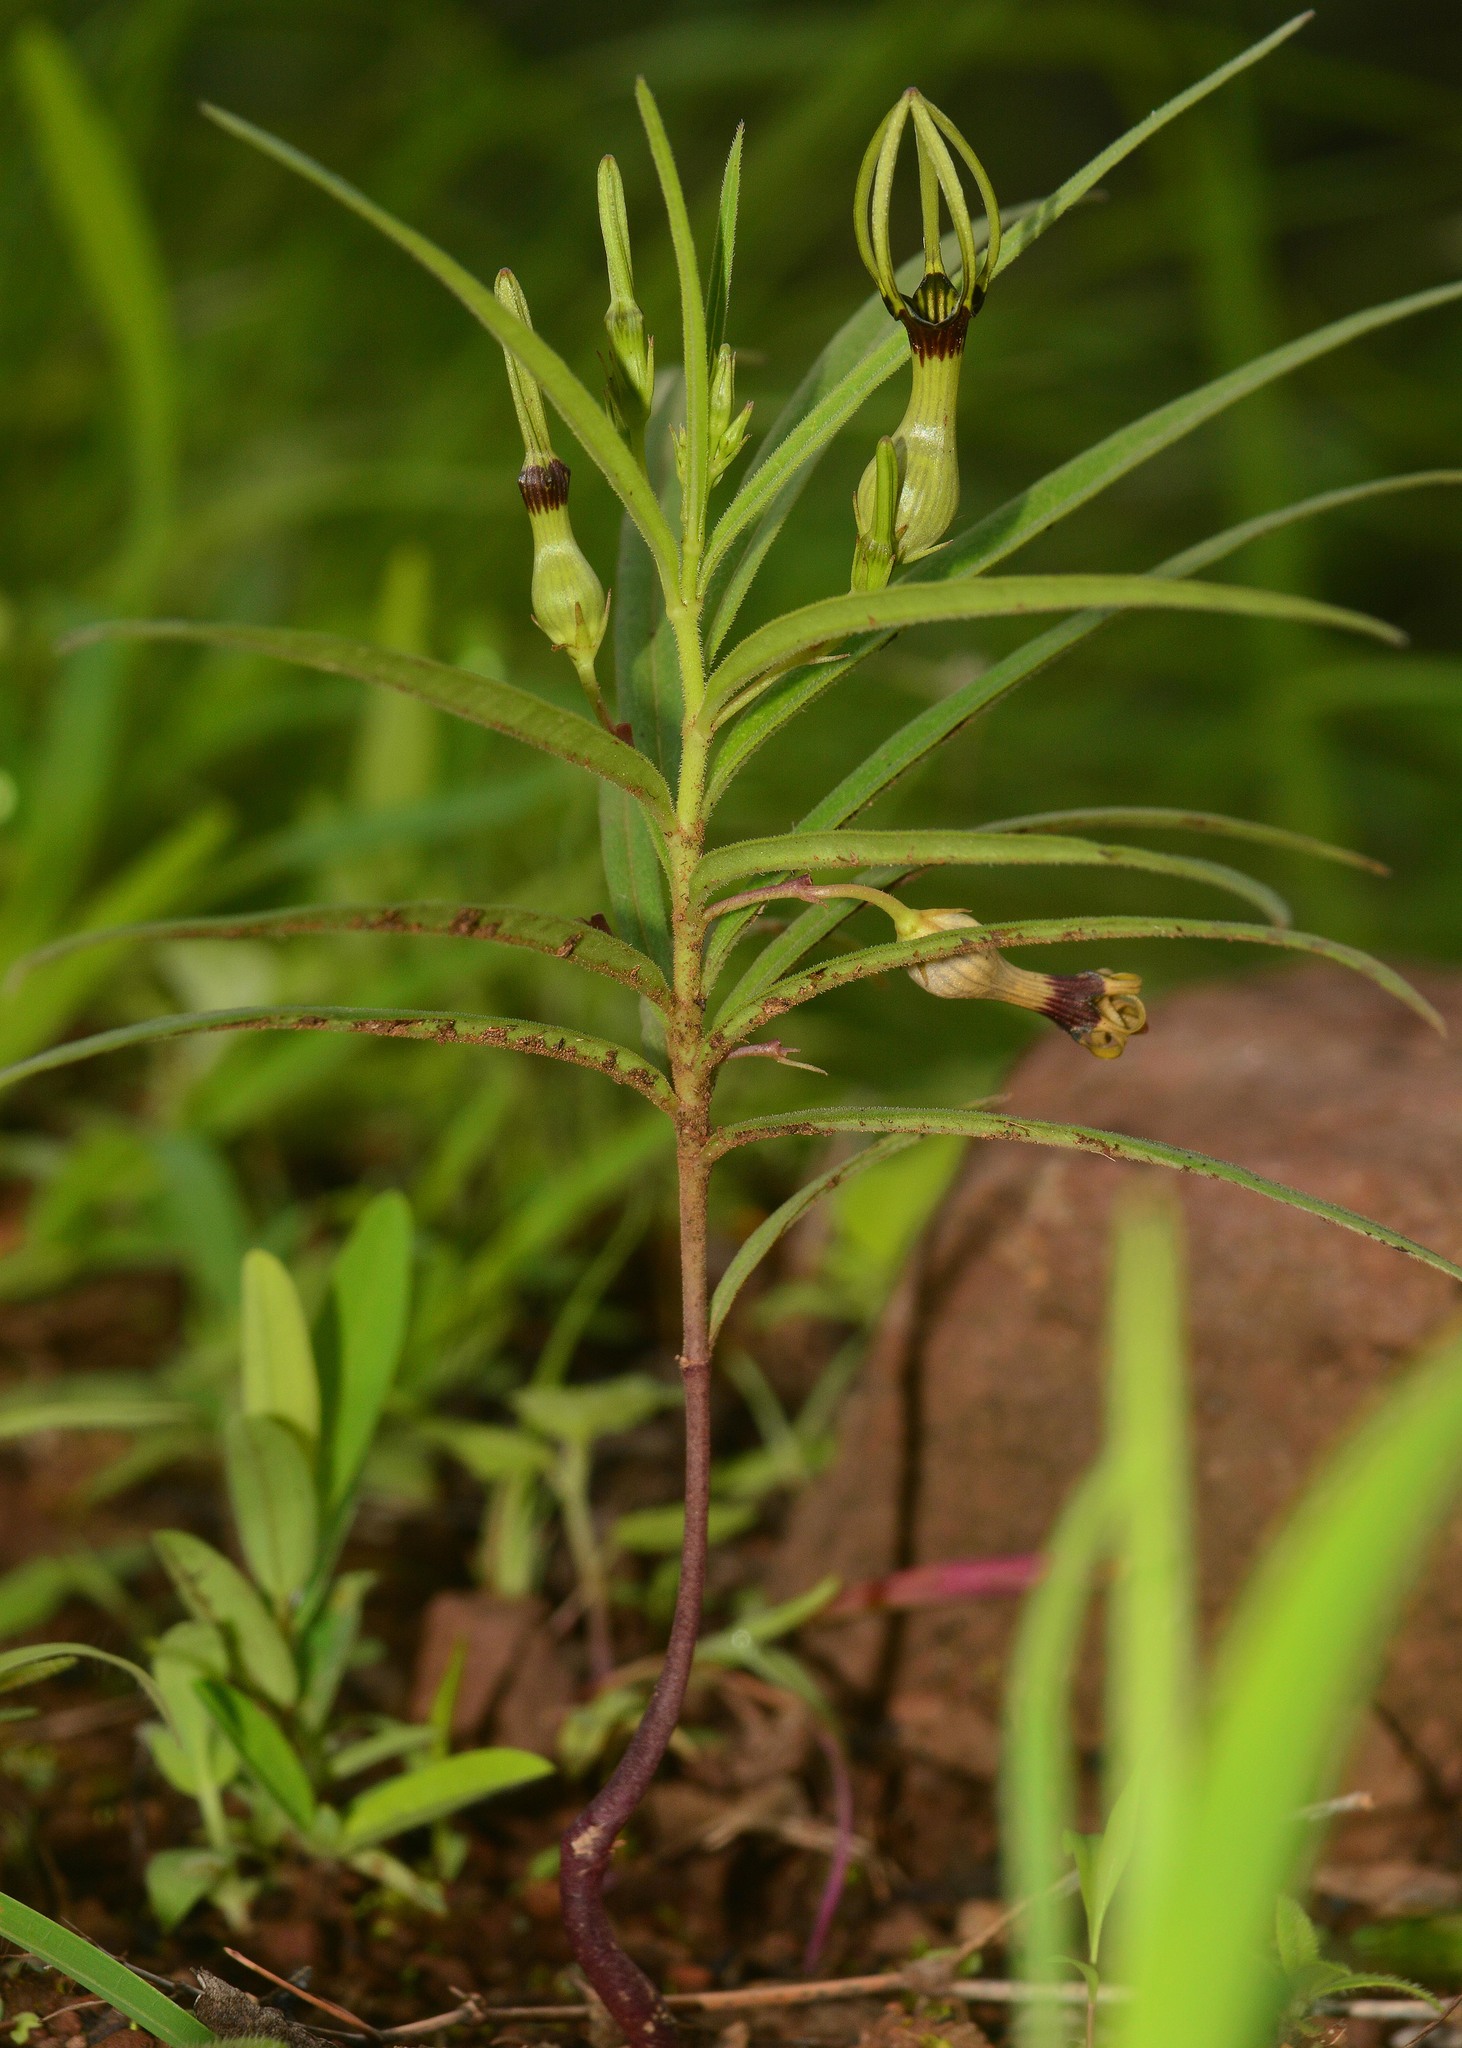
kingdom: Plantae
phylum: Tracheophyta
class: Magnoliopsida
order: Gentianales
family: Apocynaceae
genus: Ceropegia
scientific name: Ceropegia noorjahaniae
